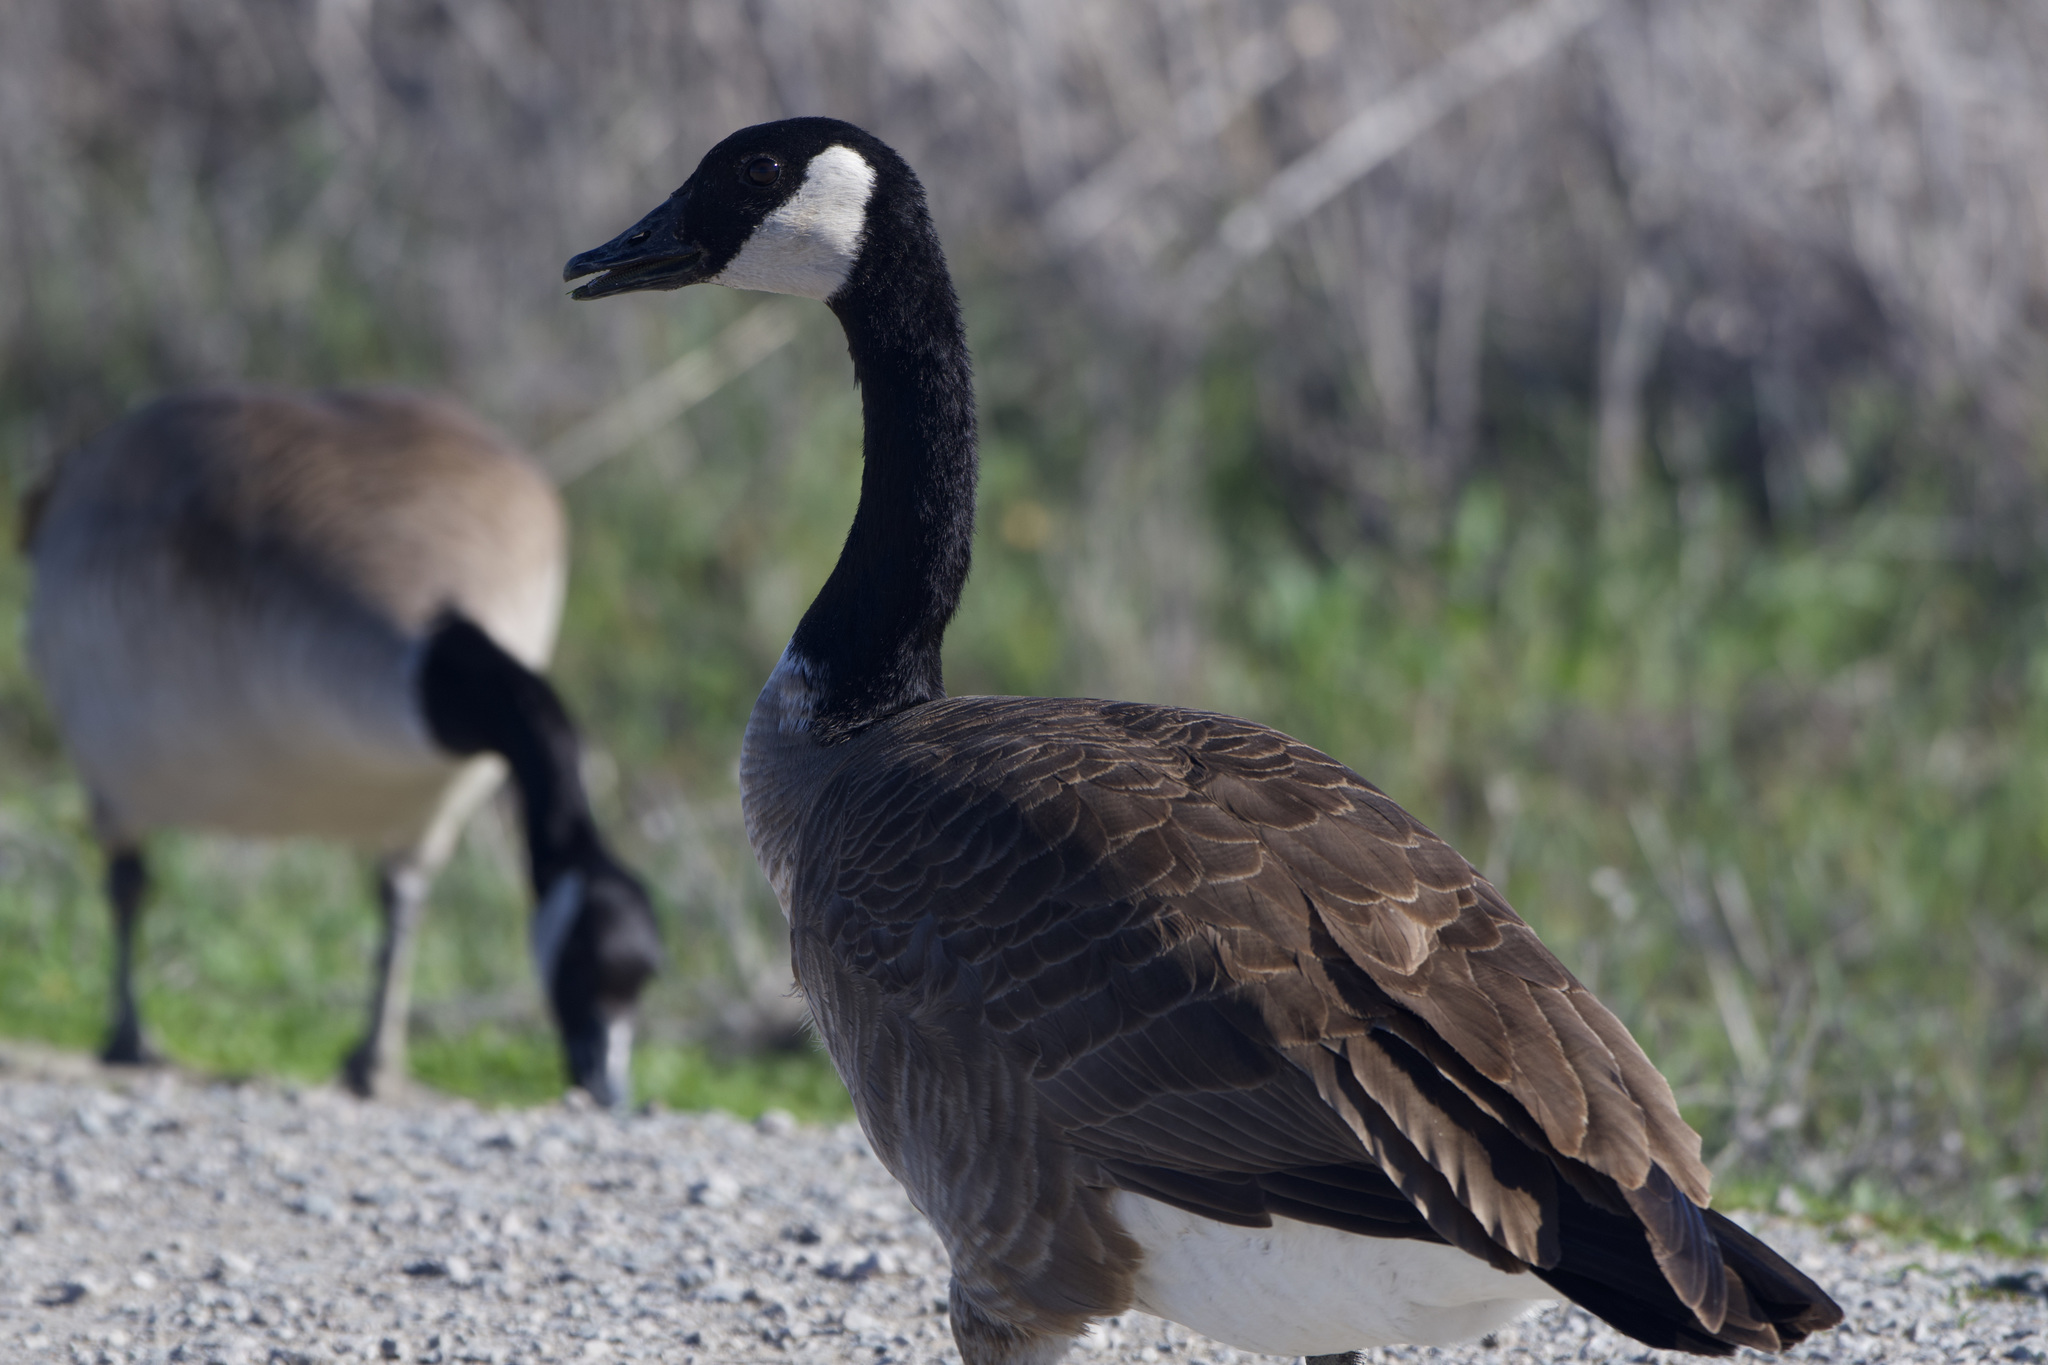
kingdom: Animalia
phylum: Chordata
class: Aves
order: Anseriformes
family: Anatidae
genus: Branta
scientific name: Branta canadensis
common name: Canada goose
